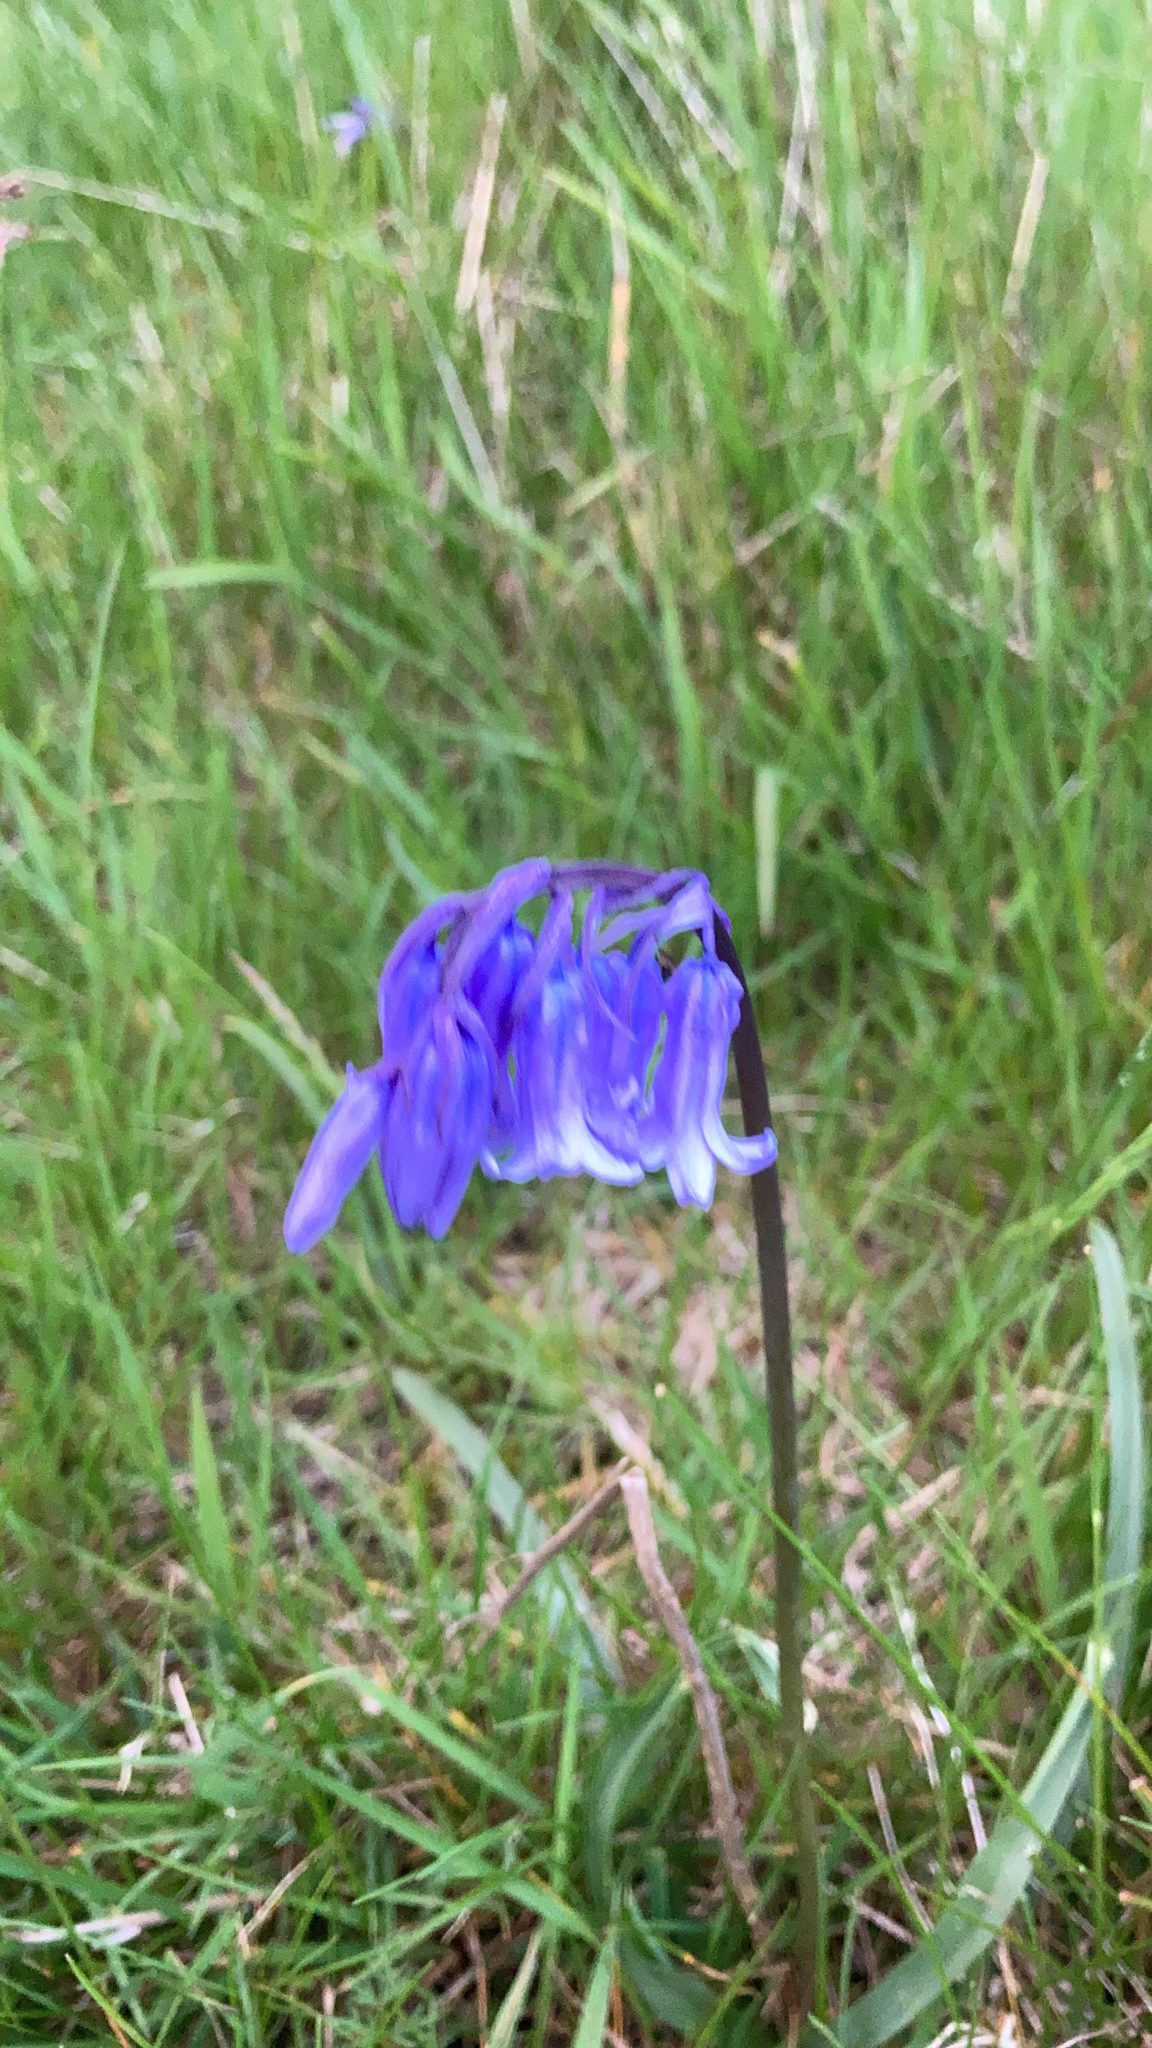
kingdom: Plantae
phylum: Tracheophyta
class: Liliopsida
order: Asparagales
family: Asparagaceae
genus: Hyacinthoides
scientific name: Hyacinthoides non-scripta
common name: Bluebell
